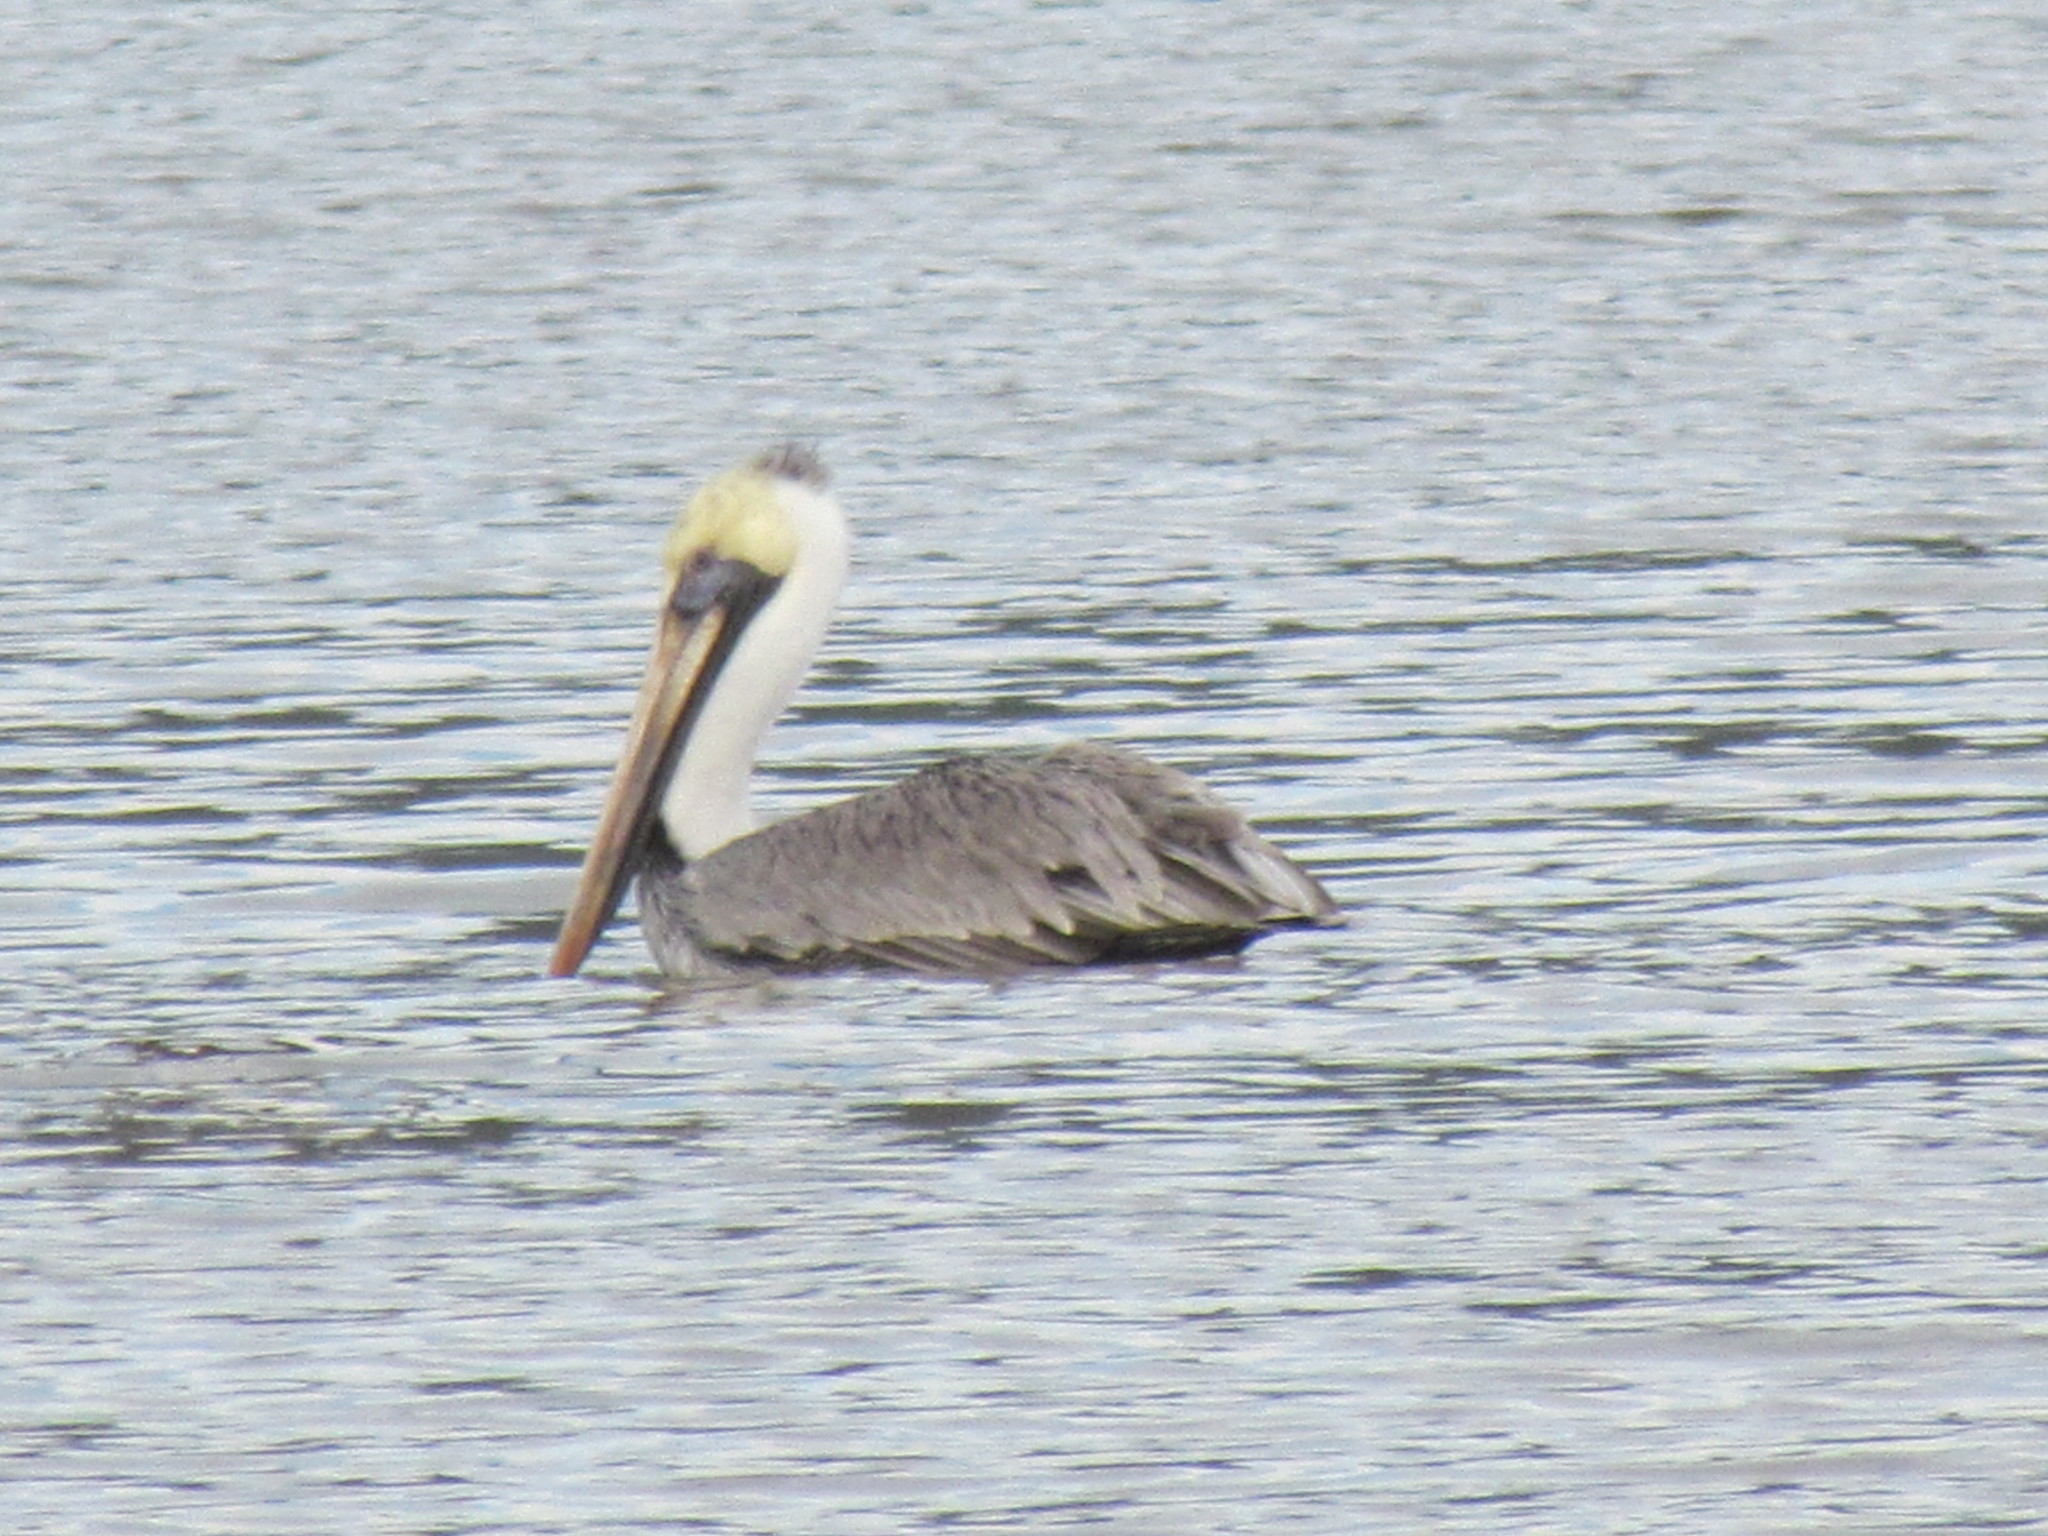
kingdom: Animalia
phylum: Chordata
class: Aves
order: Pelecaniformes
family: Pelecanidae
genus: Pelecanus
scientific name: Pelecanus occidentalis
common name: Brown pelican
